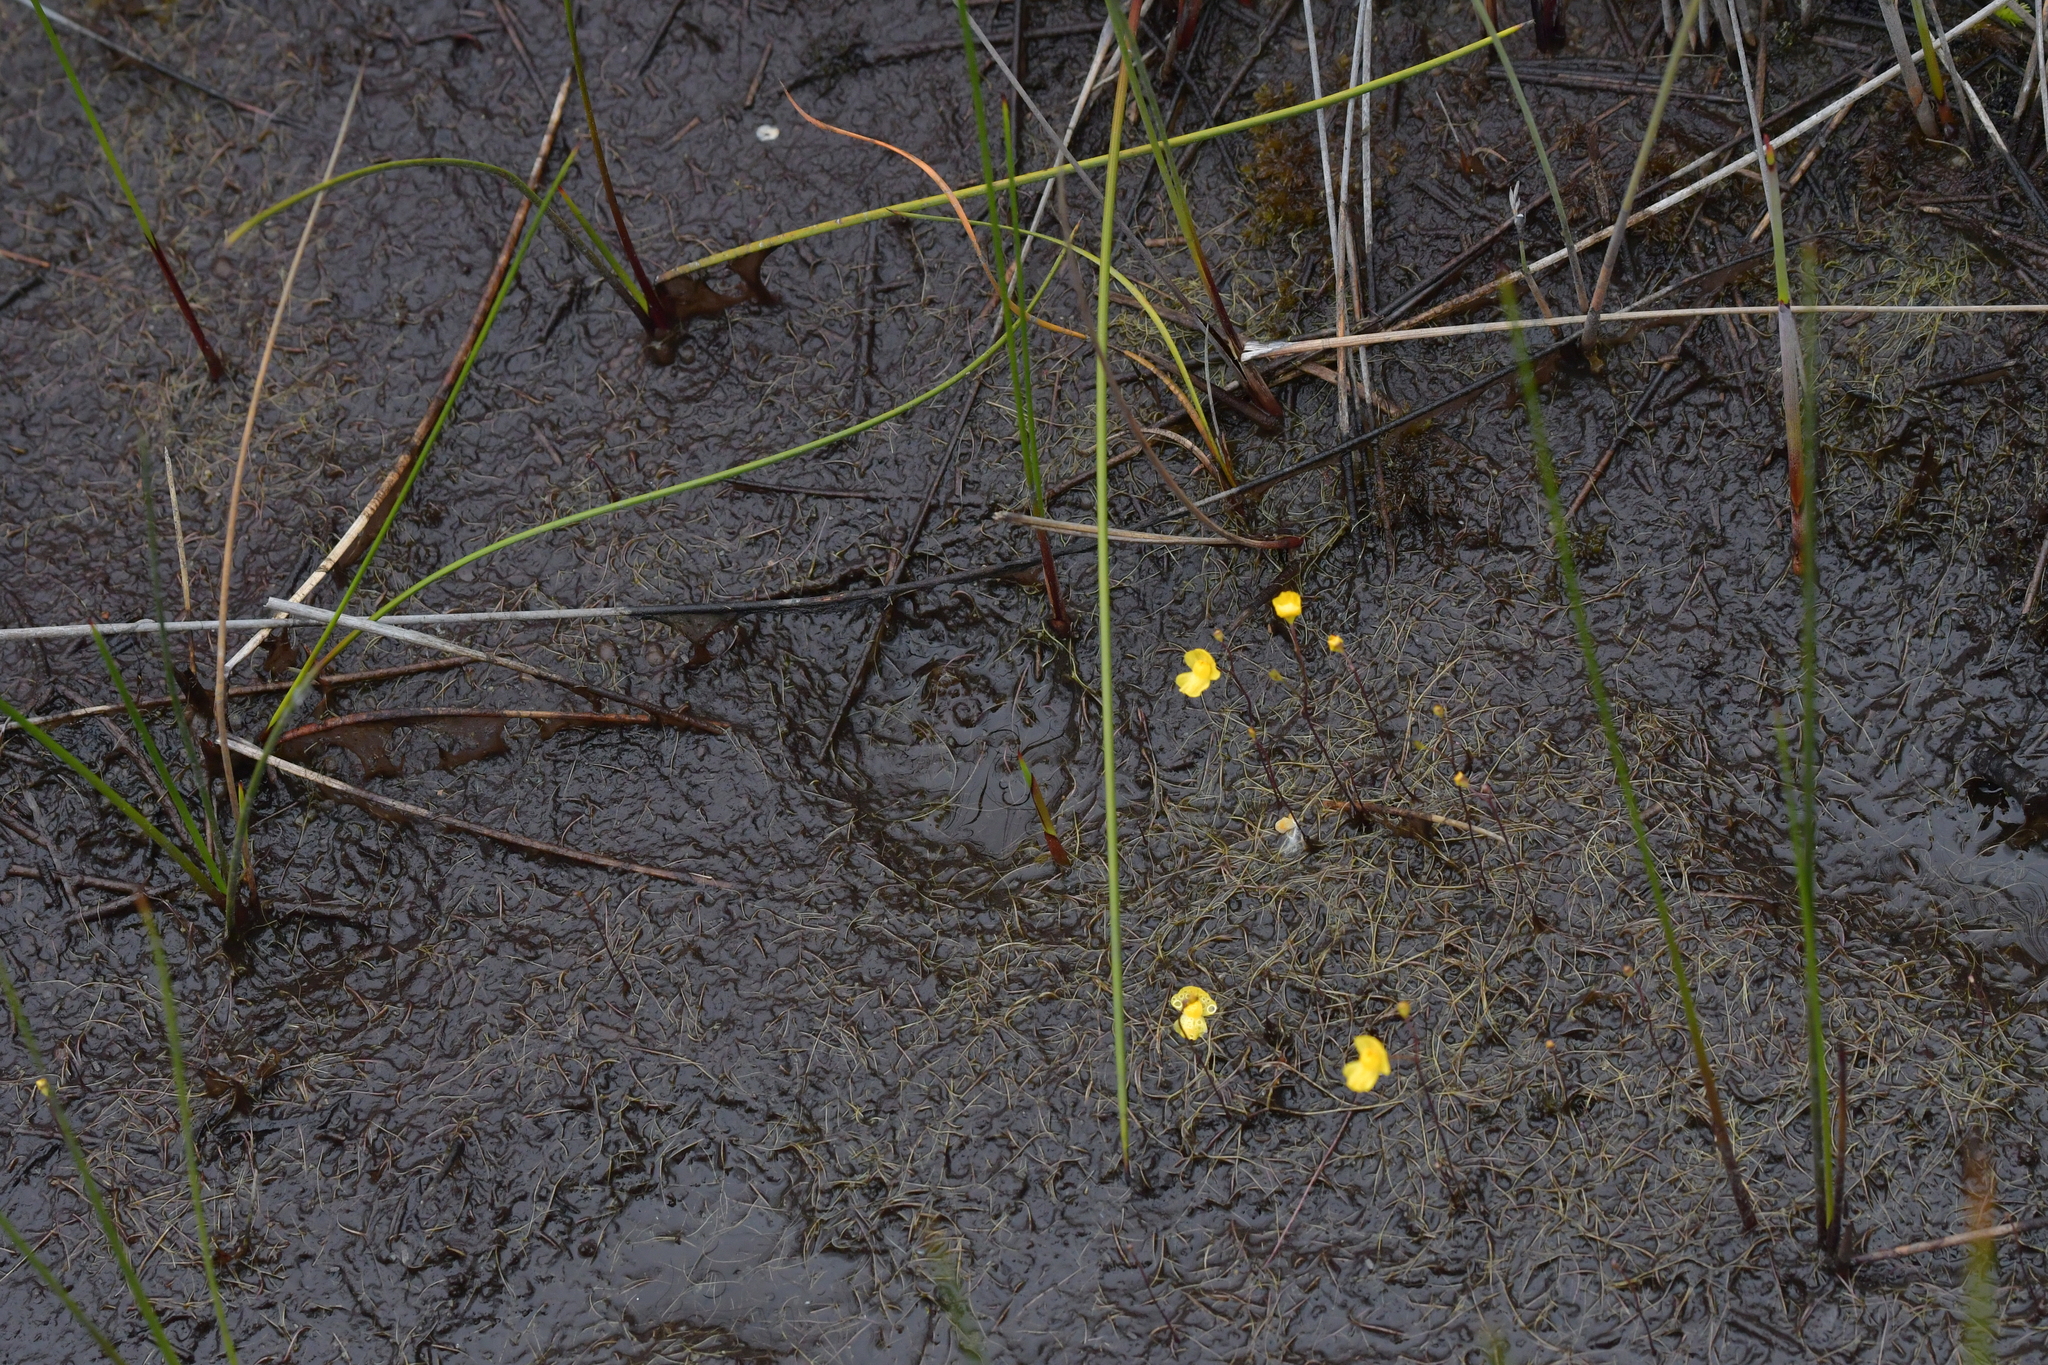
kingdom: Plantae
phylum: Tracheophyta
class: Magnoliopsida
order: Lamiales
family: Lentibulariaceae
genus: Utricularia
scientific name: Utricularia gibba
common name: Humped bladderwort
